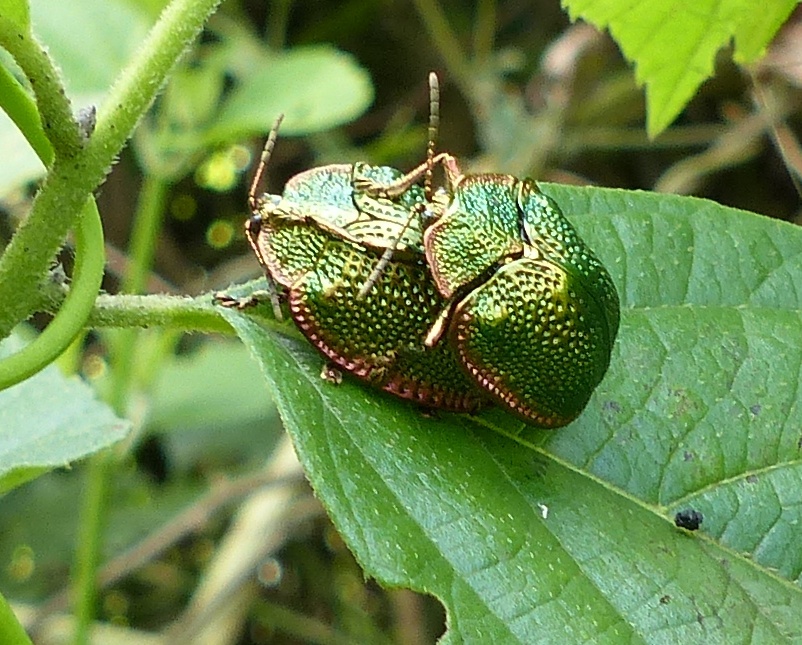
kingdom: Animalia
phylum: Arthropoda
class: Insecta
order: Coleoptera
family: Chrysomelidae
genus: Polychalca
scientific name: Polychalca punctatissima
